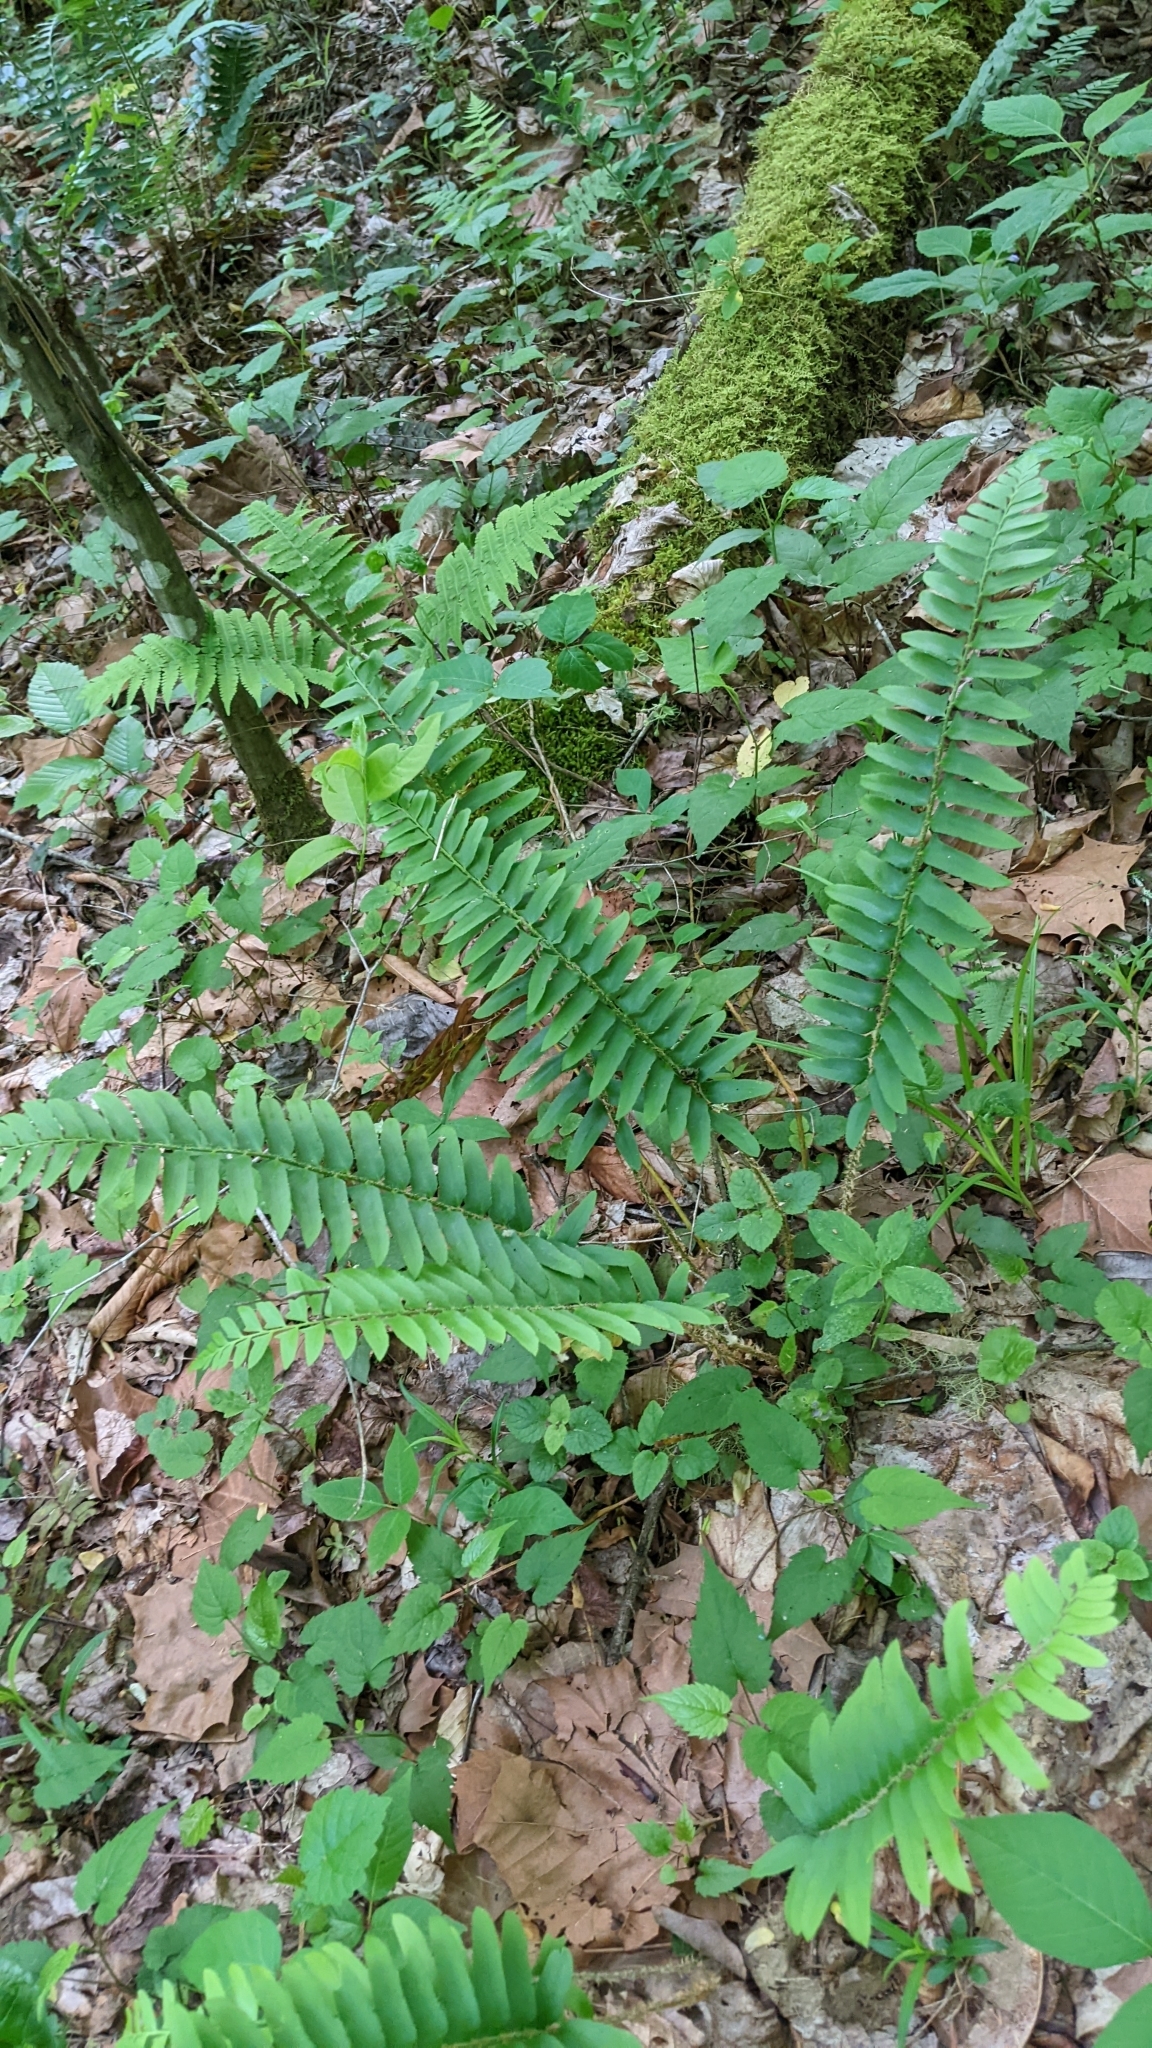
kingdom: Plantae
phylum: Tracheophyta
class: Polypodiopsida
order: Polypodiales
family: Dryopteridaceae
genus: Polystichum
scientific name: Polystichum acrostichoides
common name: Christmas fern
